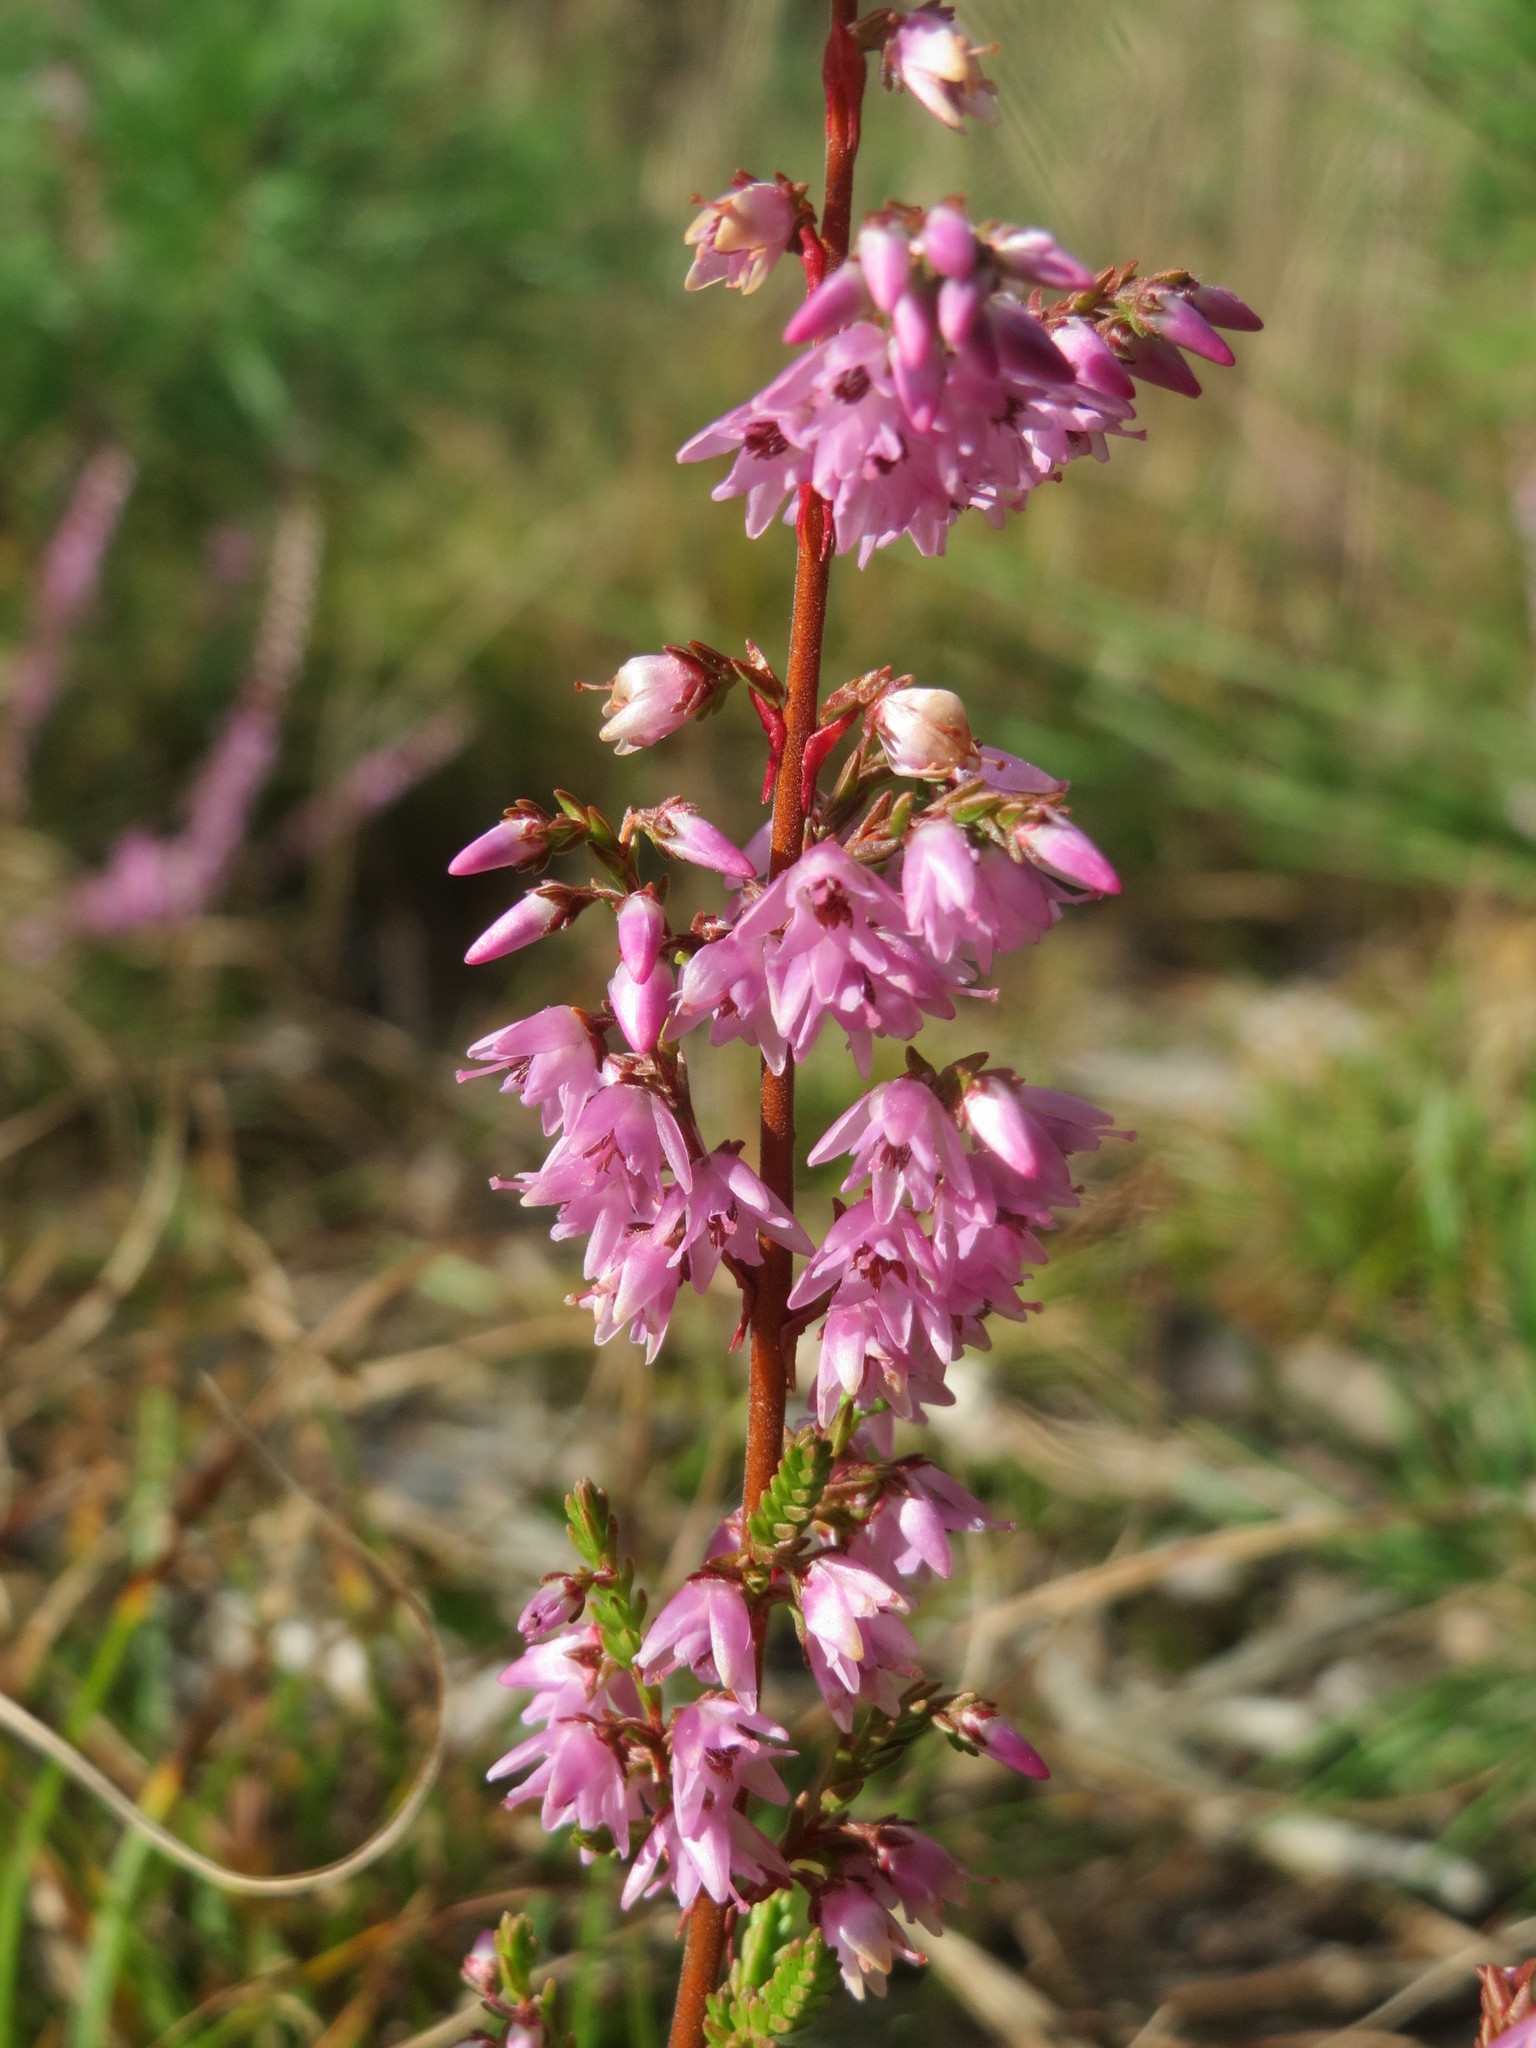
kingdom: Plantae
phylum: Tracheophyta
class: Magnoliopsida
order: Ericales
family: Ericaceae
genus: Calluna
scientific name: Calluna vulgaris
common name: Heather
